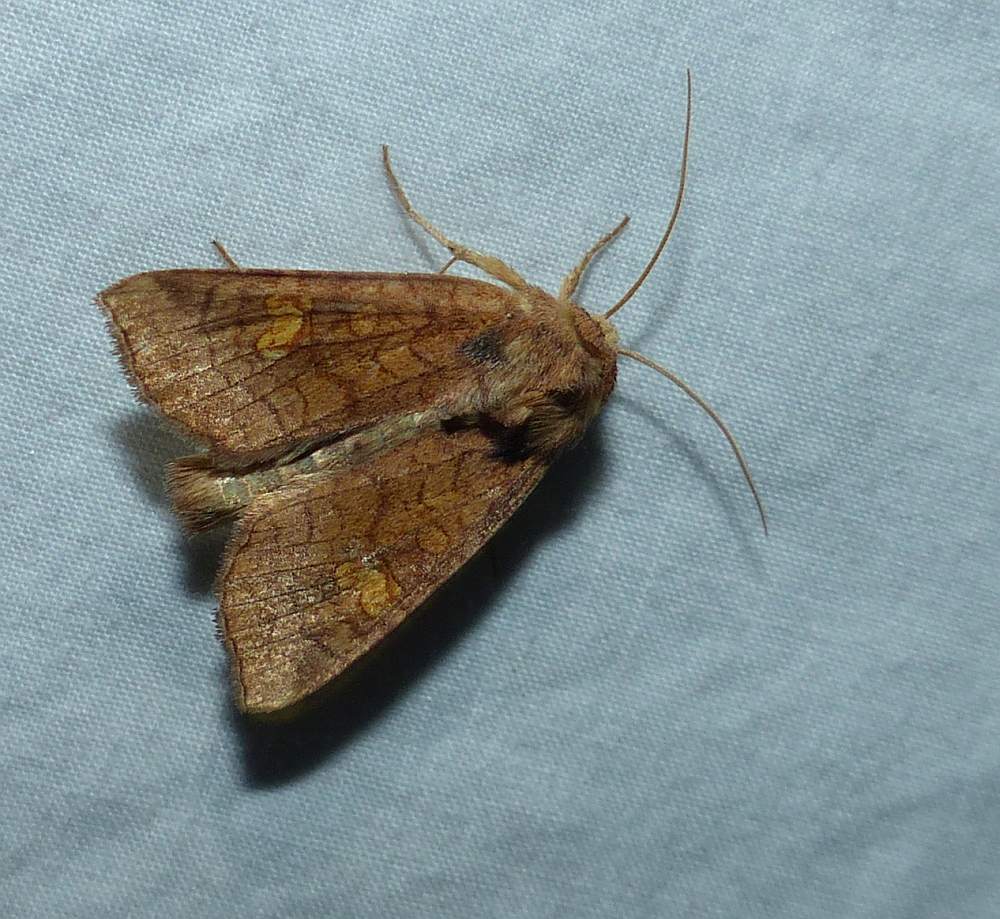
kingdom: Animalia
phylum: Arthropoda
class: Insecta
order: Lepidoptera
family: Noctuidae
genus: Amphipoea
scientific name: Amphipoea americana
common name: American ear moth
